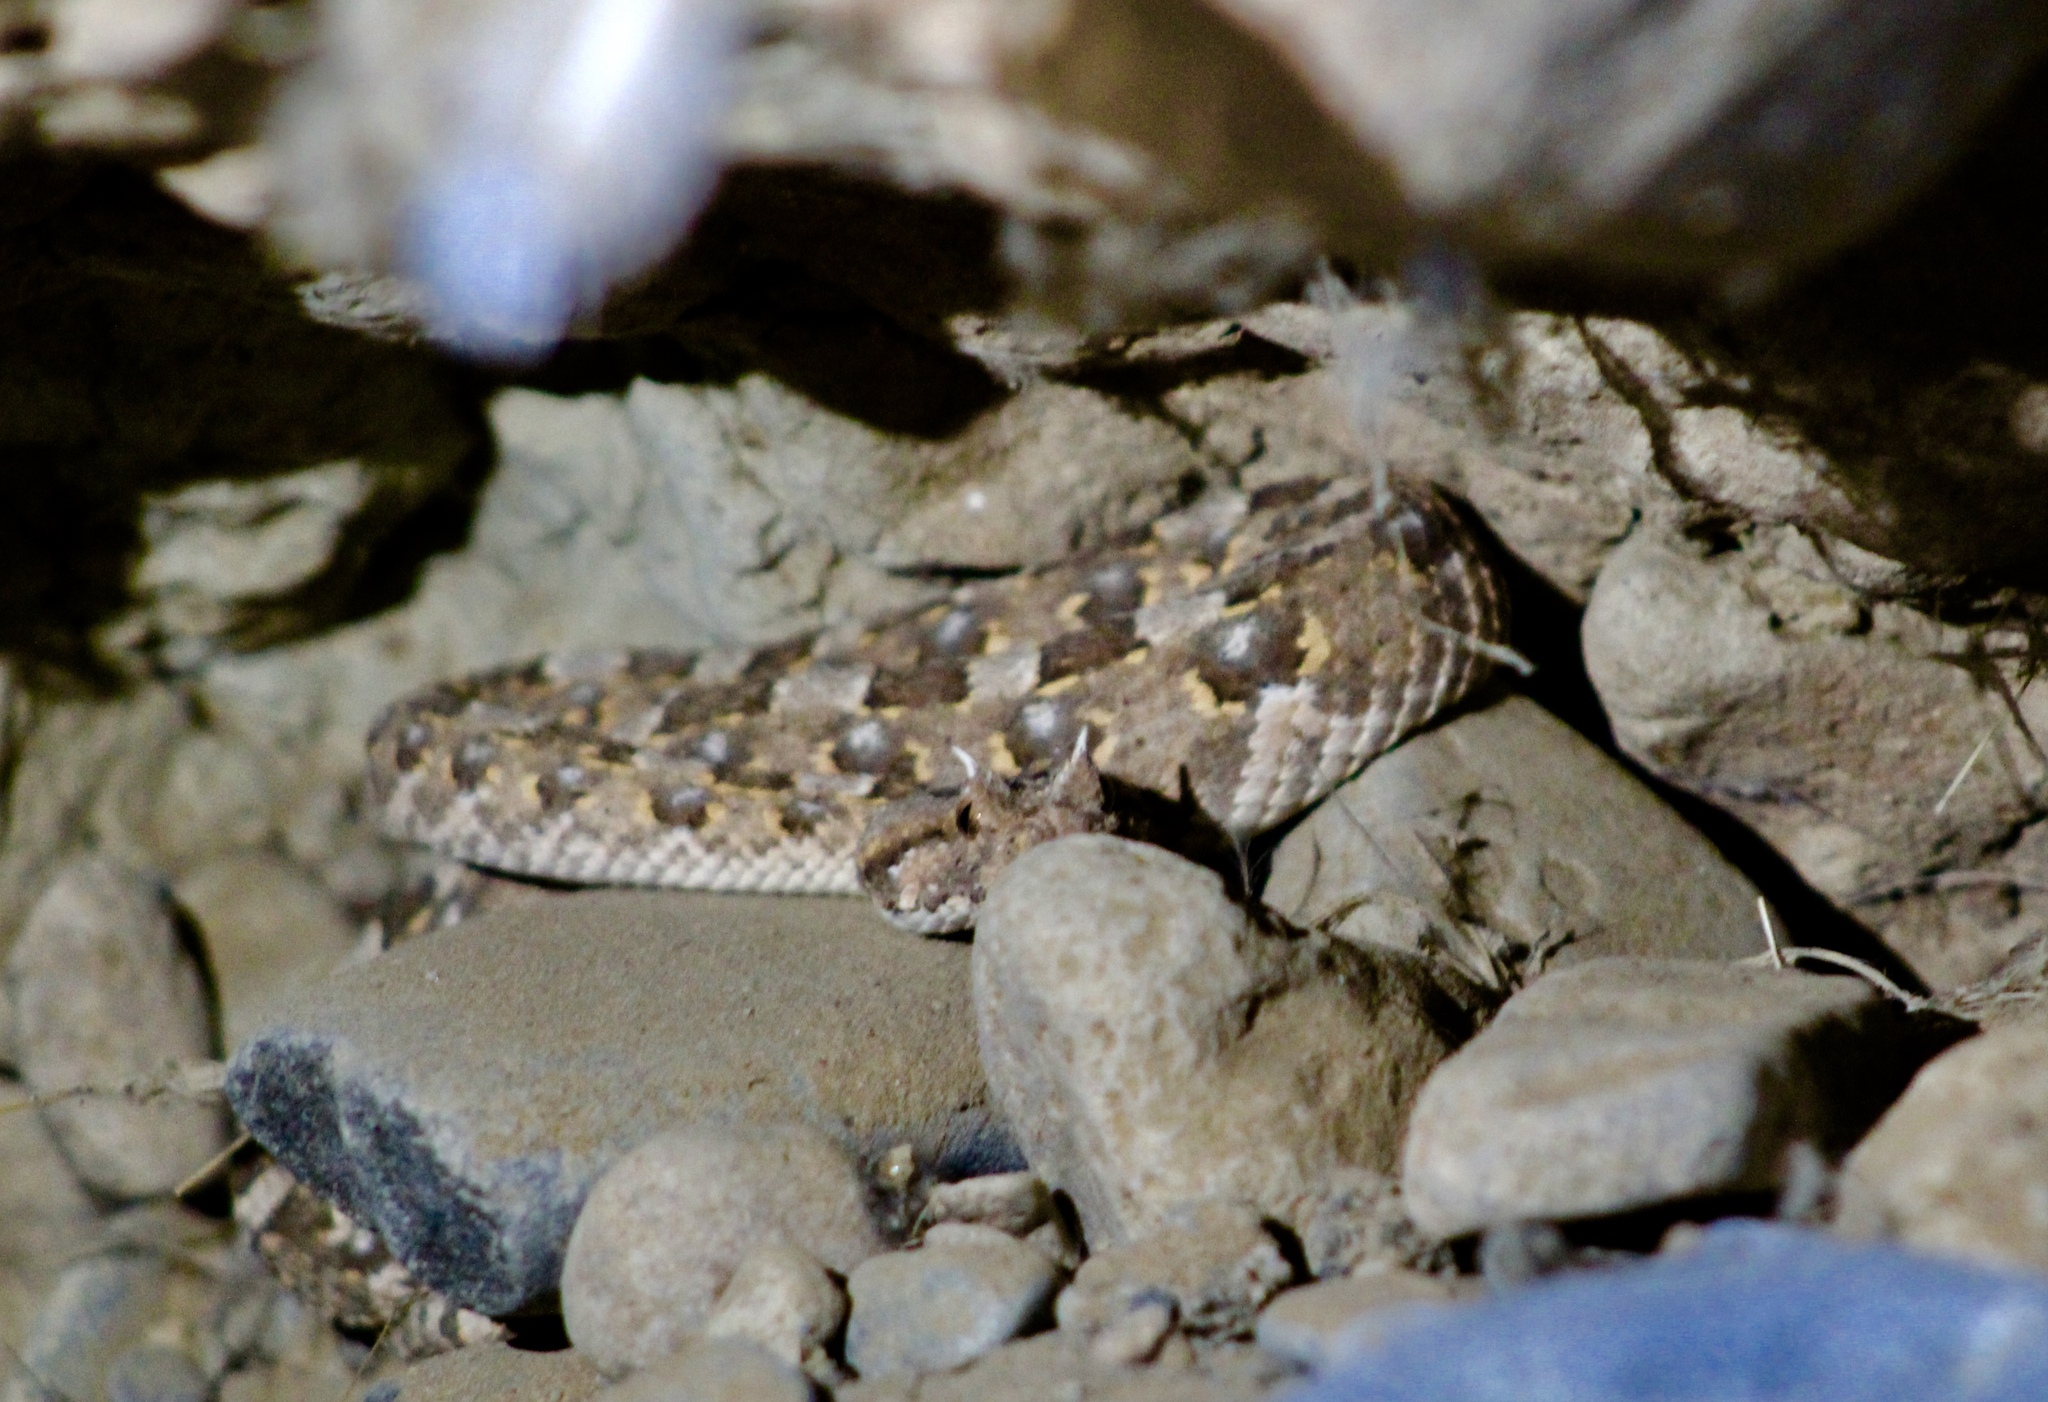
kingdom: Animalia
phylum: Chordata
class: Squamata
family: Viperidae
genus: Bitis
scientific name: Bitis caudalis
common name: Horned adder
